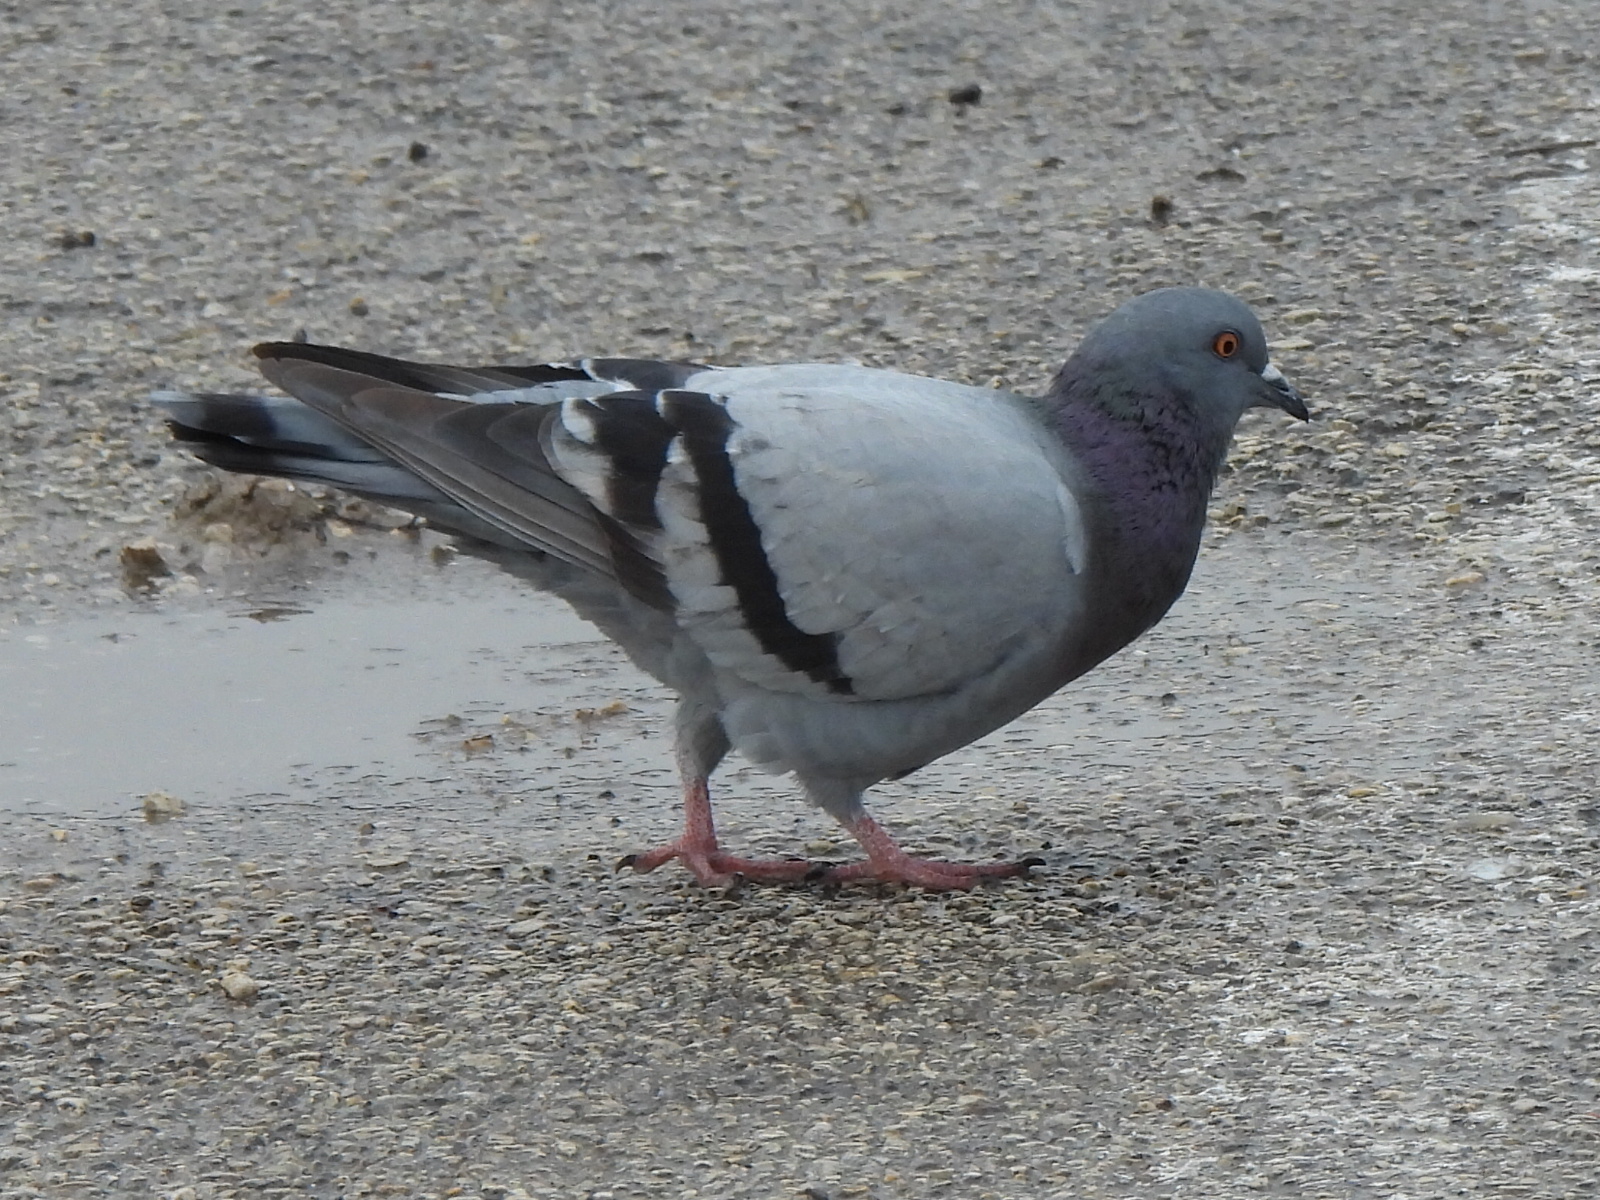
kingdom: Animalia
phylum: Chordata
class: Aves
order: Columbiformes
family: Columbidae
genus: Columba
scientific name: Columba livia
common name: Rock pigeon
